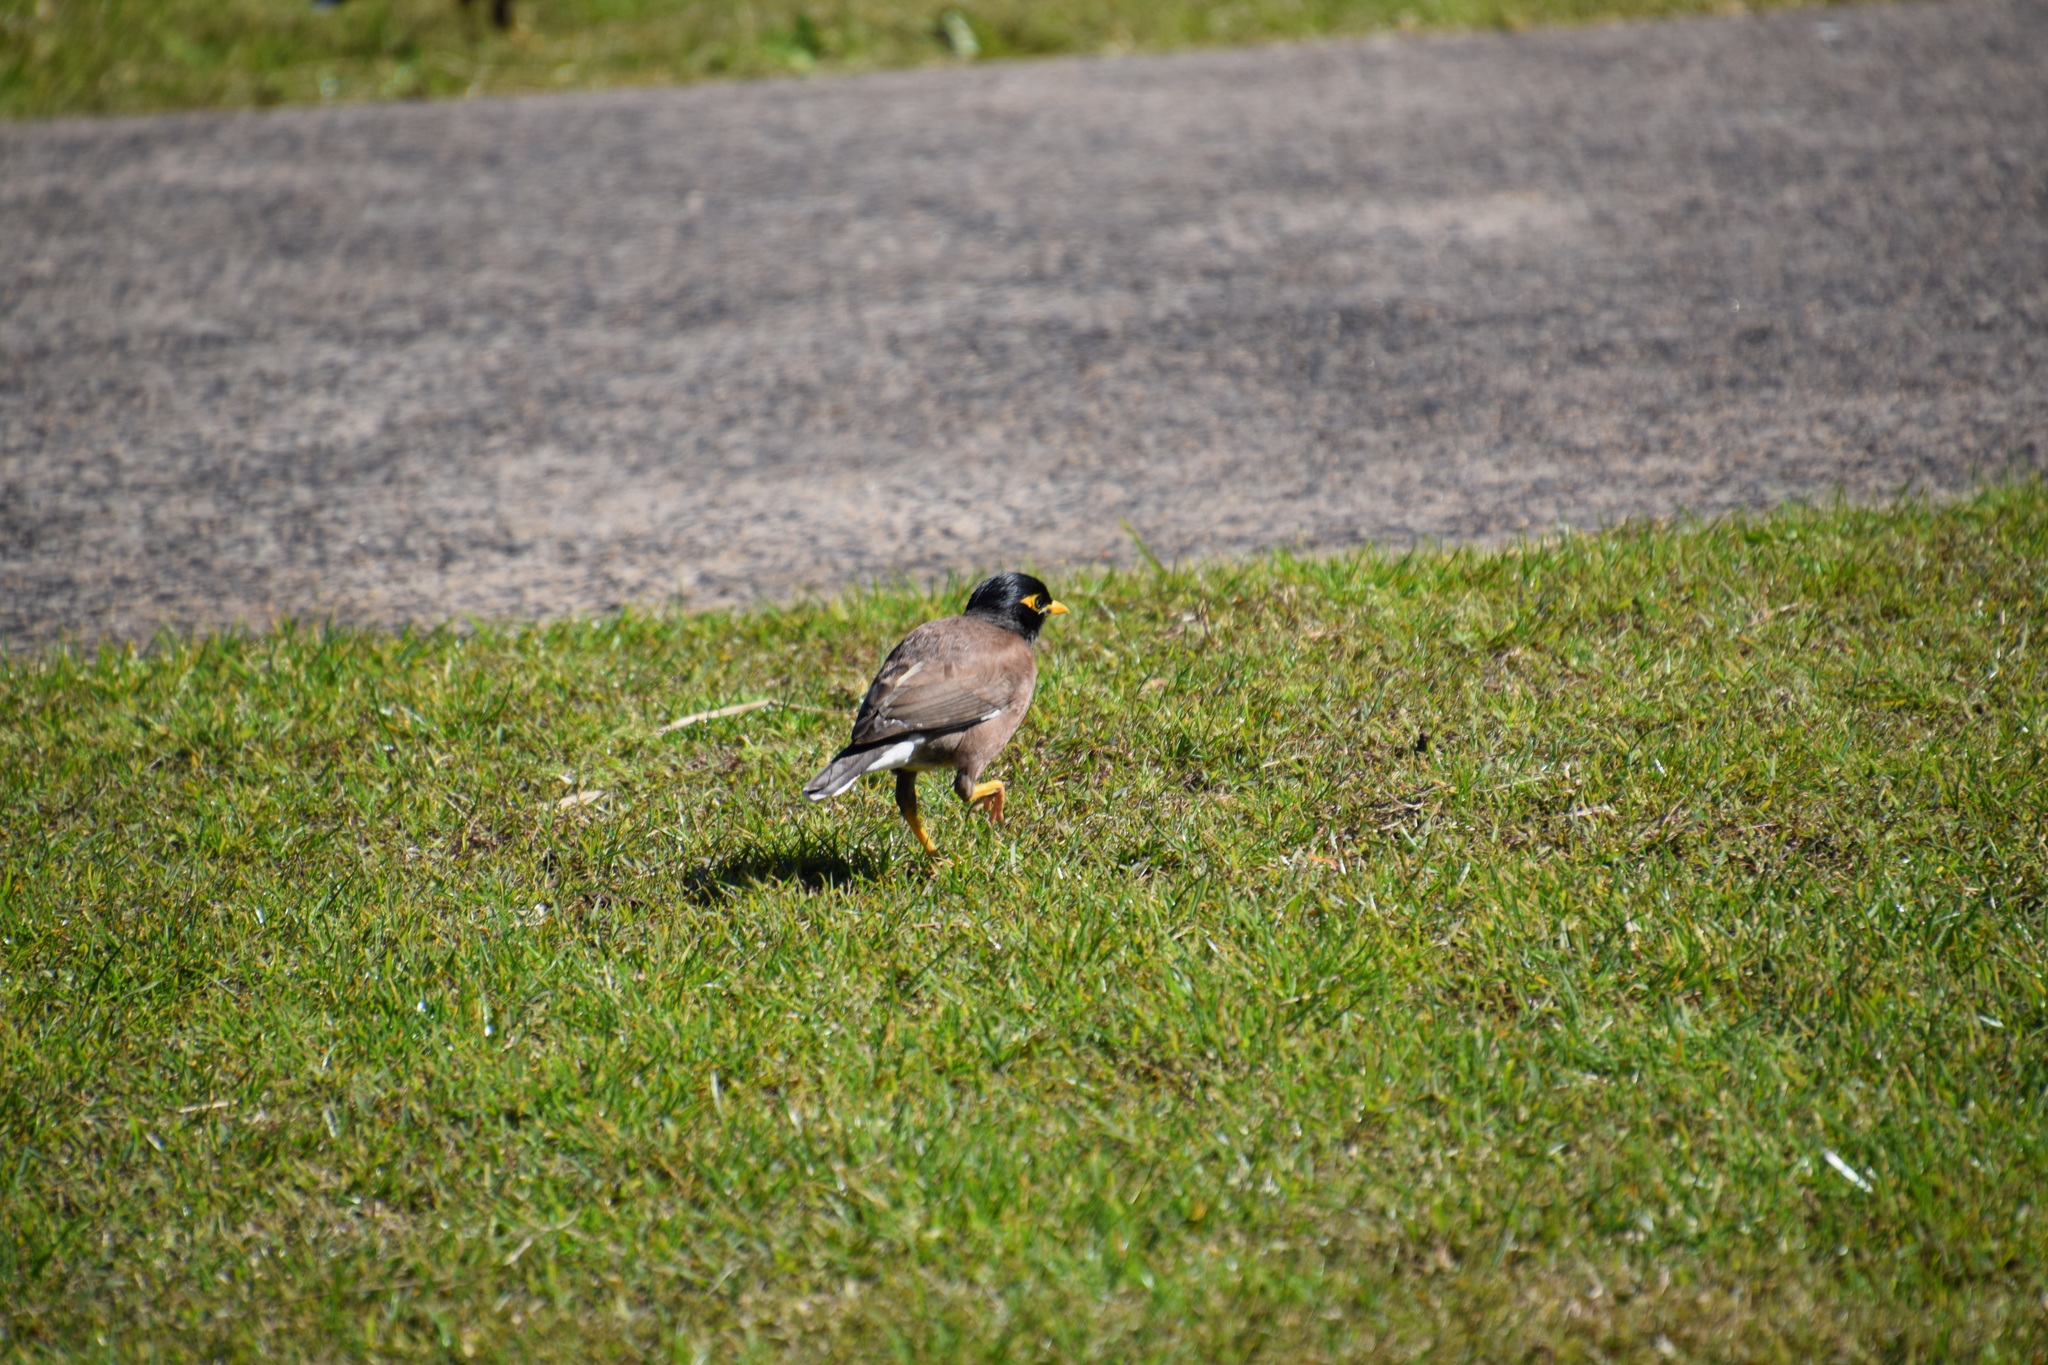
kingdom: Animalia
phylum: Chordata
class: Aves
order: Passeriformes
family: Sturnidae
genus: Acridotheres
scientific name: Acridotheres tristis
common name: Common myna
